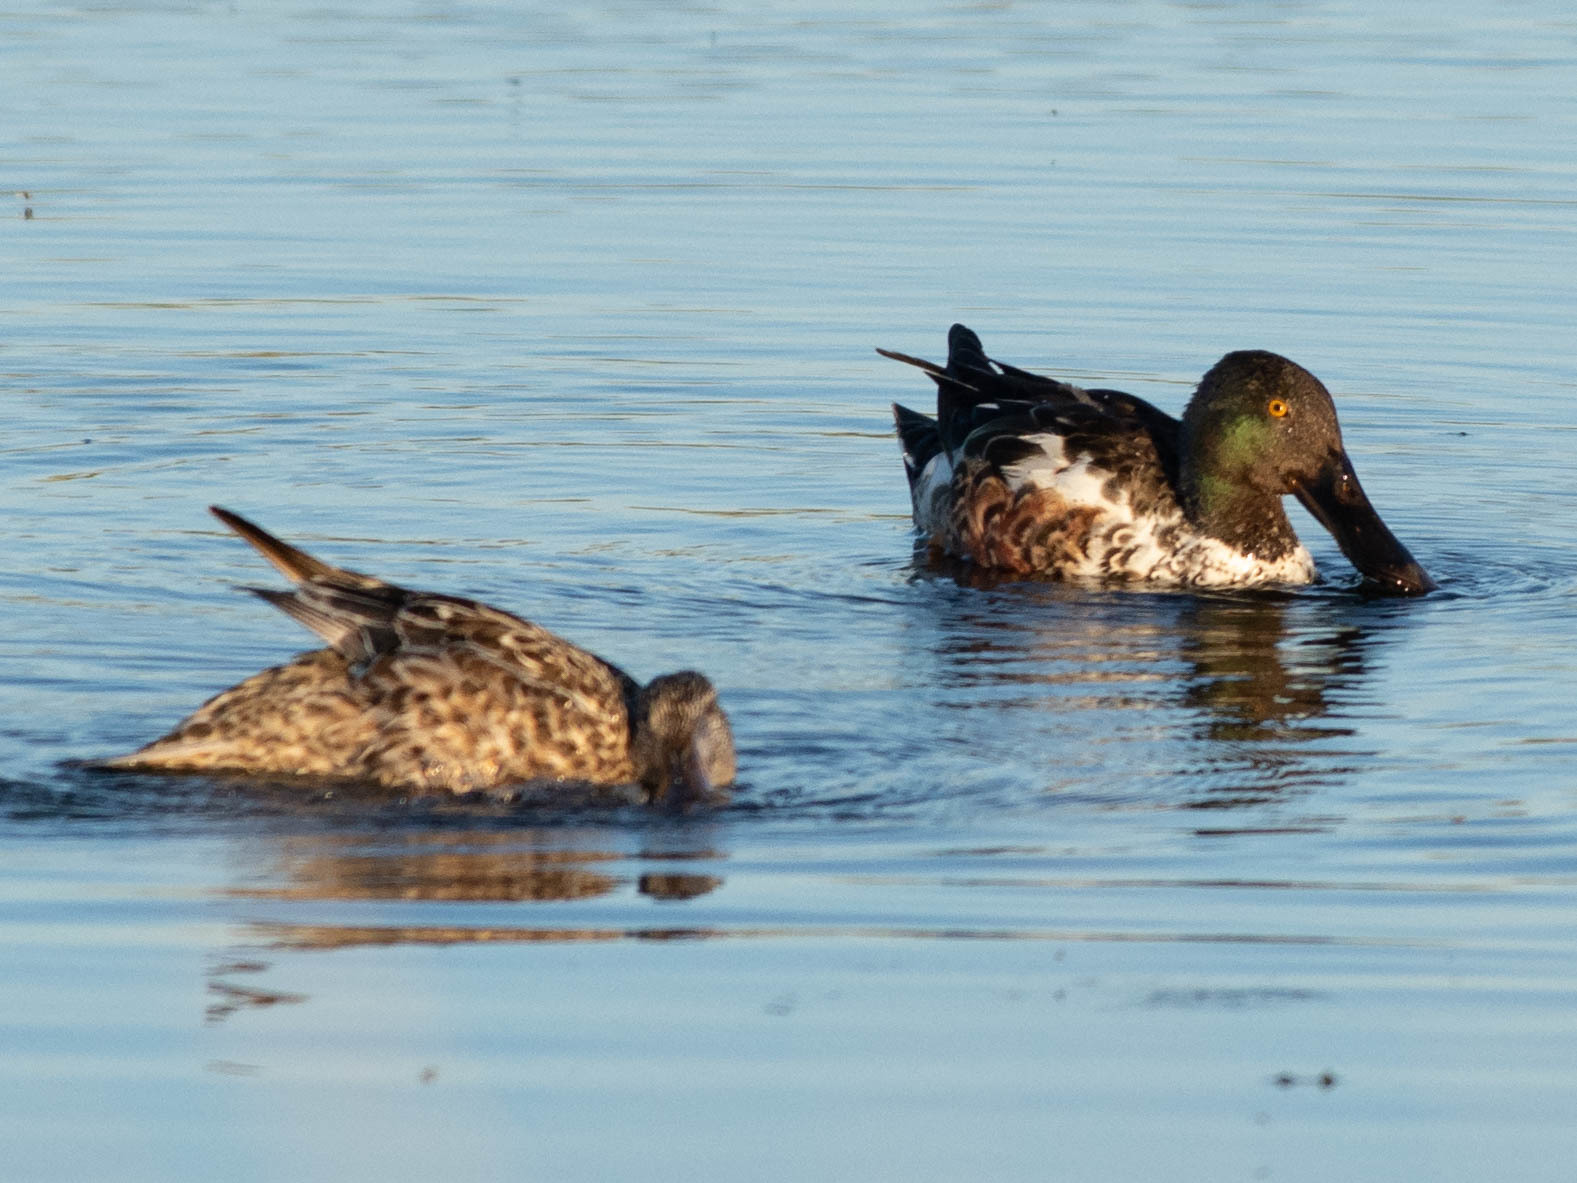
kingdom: Animalia
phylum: Chordata
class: Aves
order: Anseriformes
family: Anatidae
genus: Spatula
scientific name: Spatula clypeata
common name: Northern shoveler
